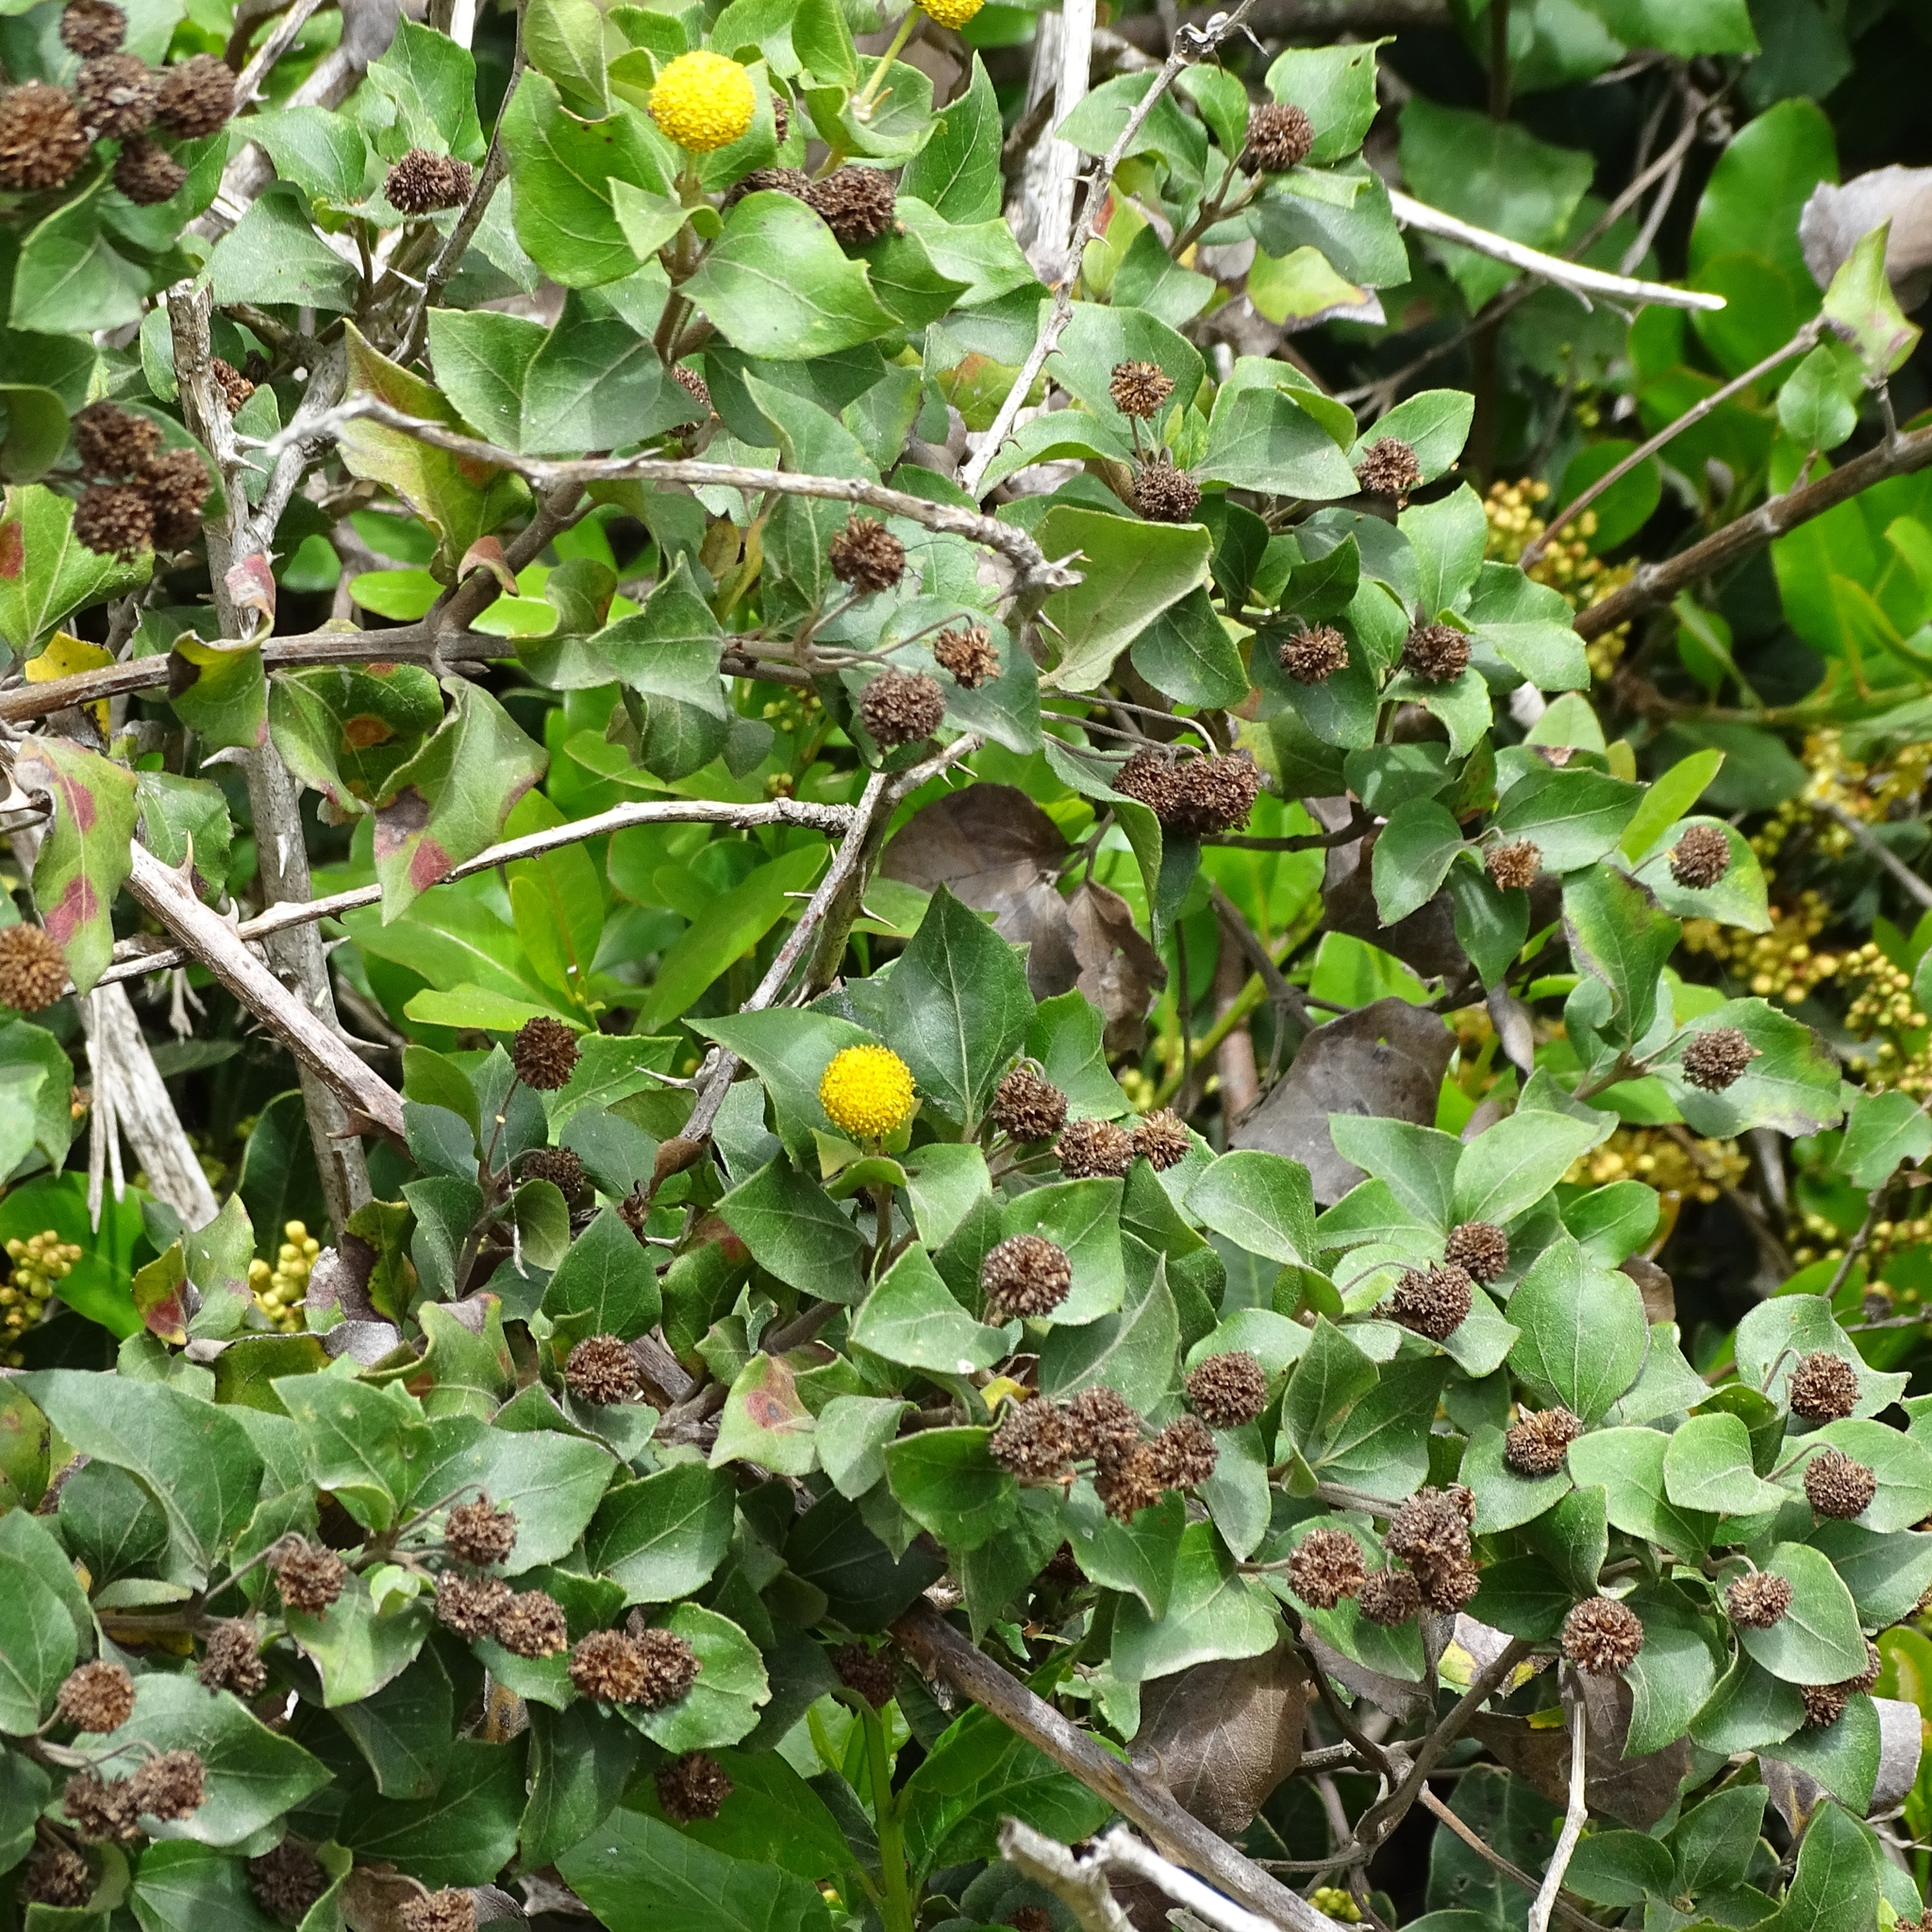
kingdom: Plantae
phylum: Tracheophyta
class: Magnoliopsida
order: Asterales
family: Asteraceae
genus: Podanthus
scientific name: Podanthus ovatifolius
